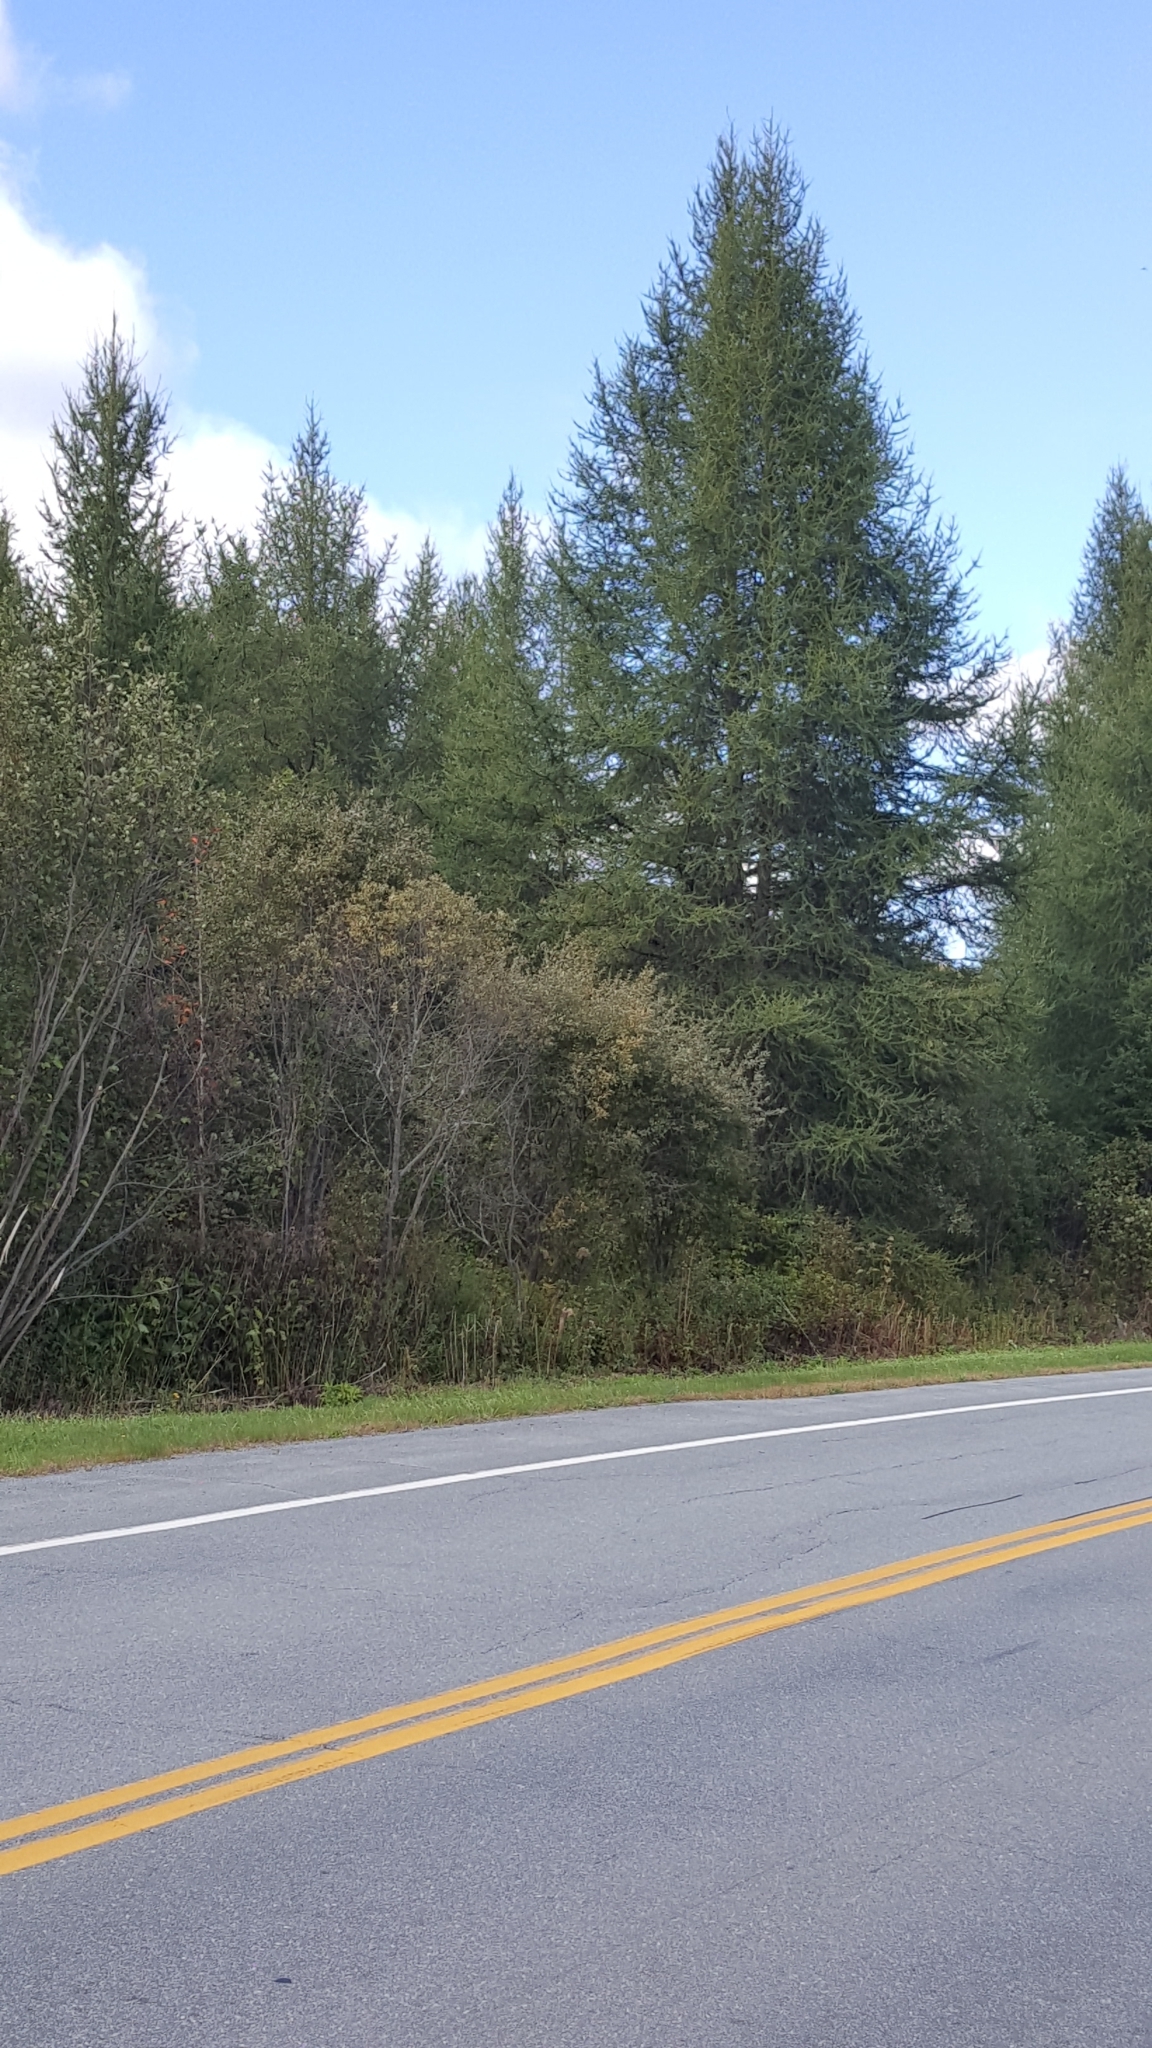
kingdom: Plantae
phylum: Tracheophyta
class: Pinopsida
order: Pinales
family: Pinaceae
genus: Larix
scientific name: Larix laricina
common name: American larch
